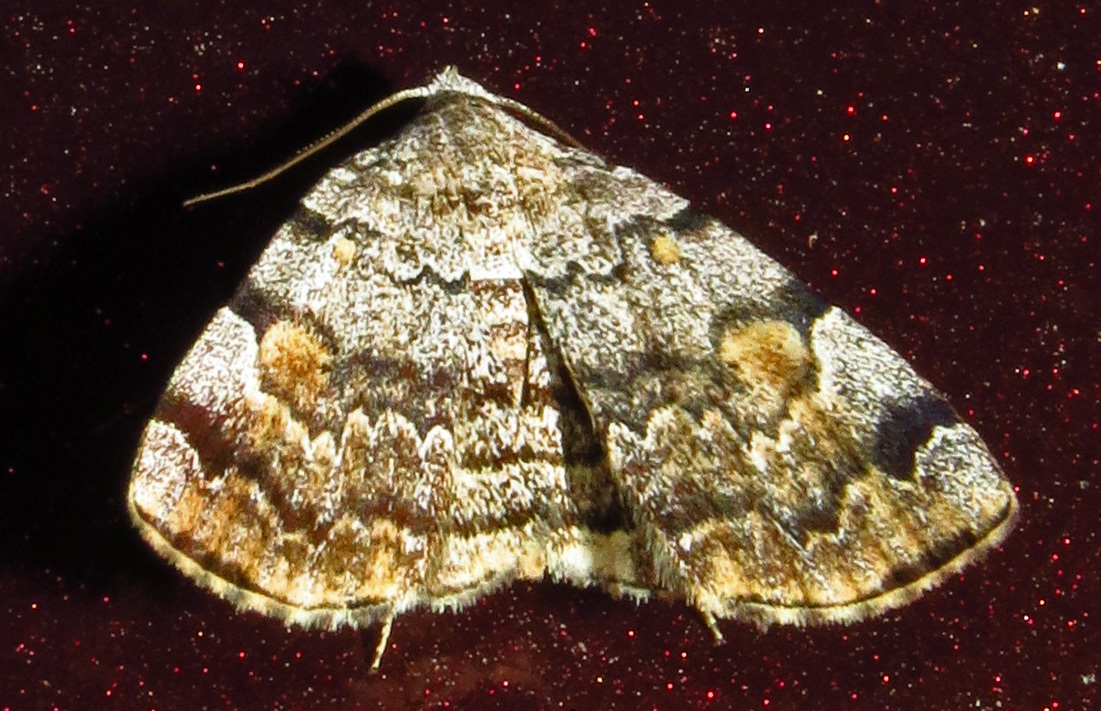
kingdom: Animalia
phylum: Arthropoda
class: Insecta
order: Lepidoptera
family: Erebidae
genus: Idia
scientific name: Idia americalis
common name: American idia moth
